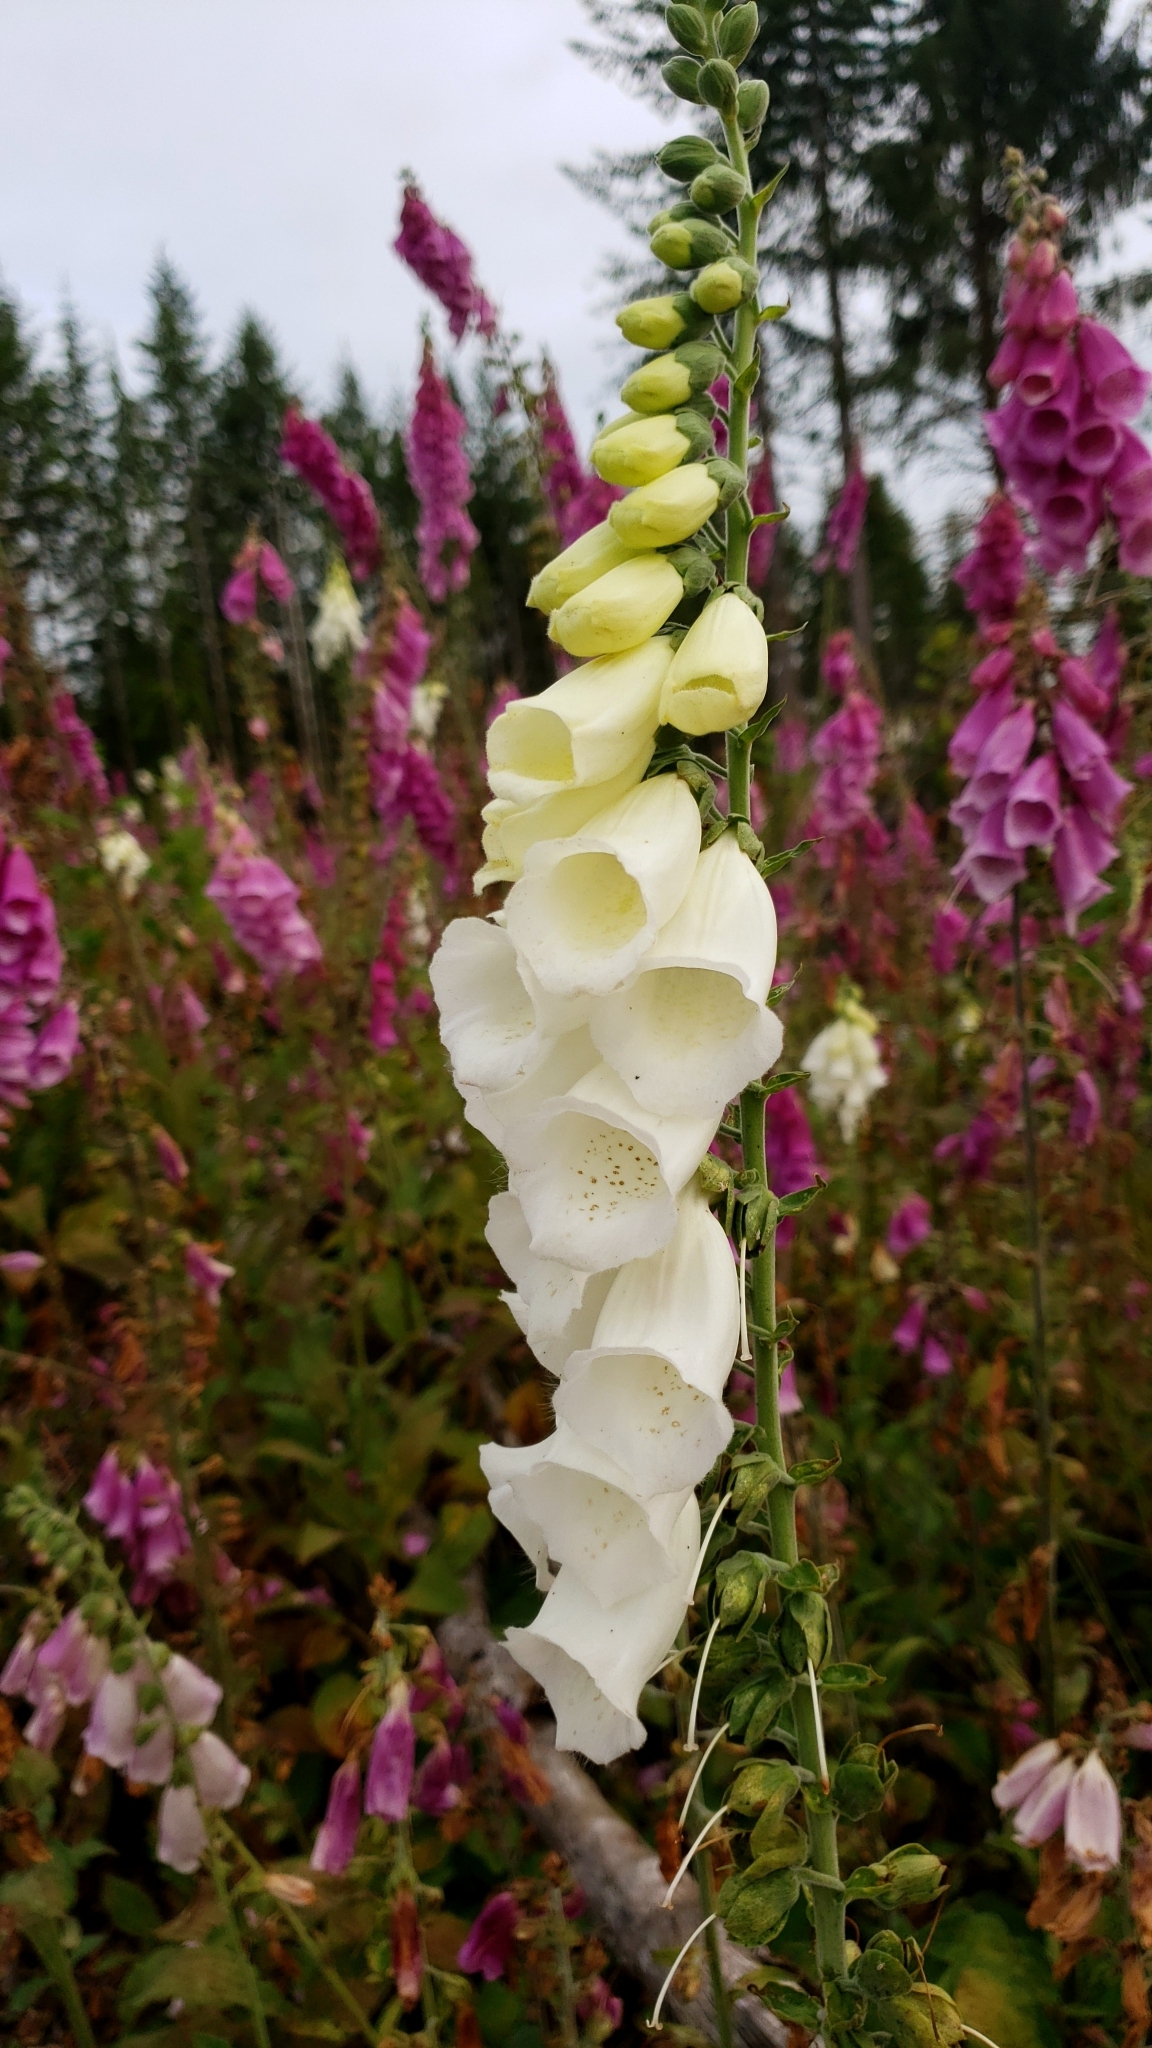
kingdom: Plantae
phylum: Tracheophyta
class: Magnoliopsida
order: Lamiales
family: Plantaginaceae
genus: Digitalis
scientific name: Digitalis purpurea
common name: Foxglove
